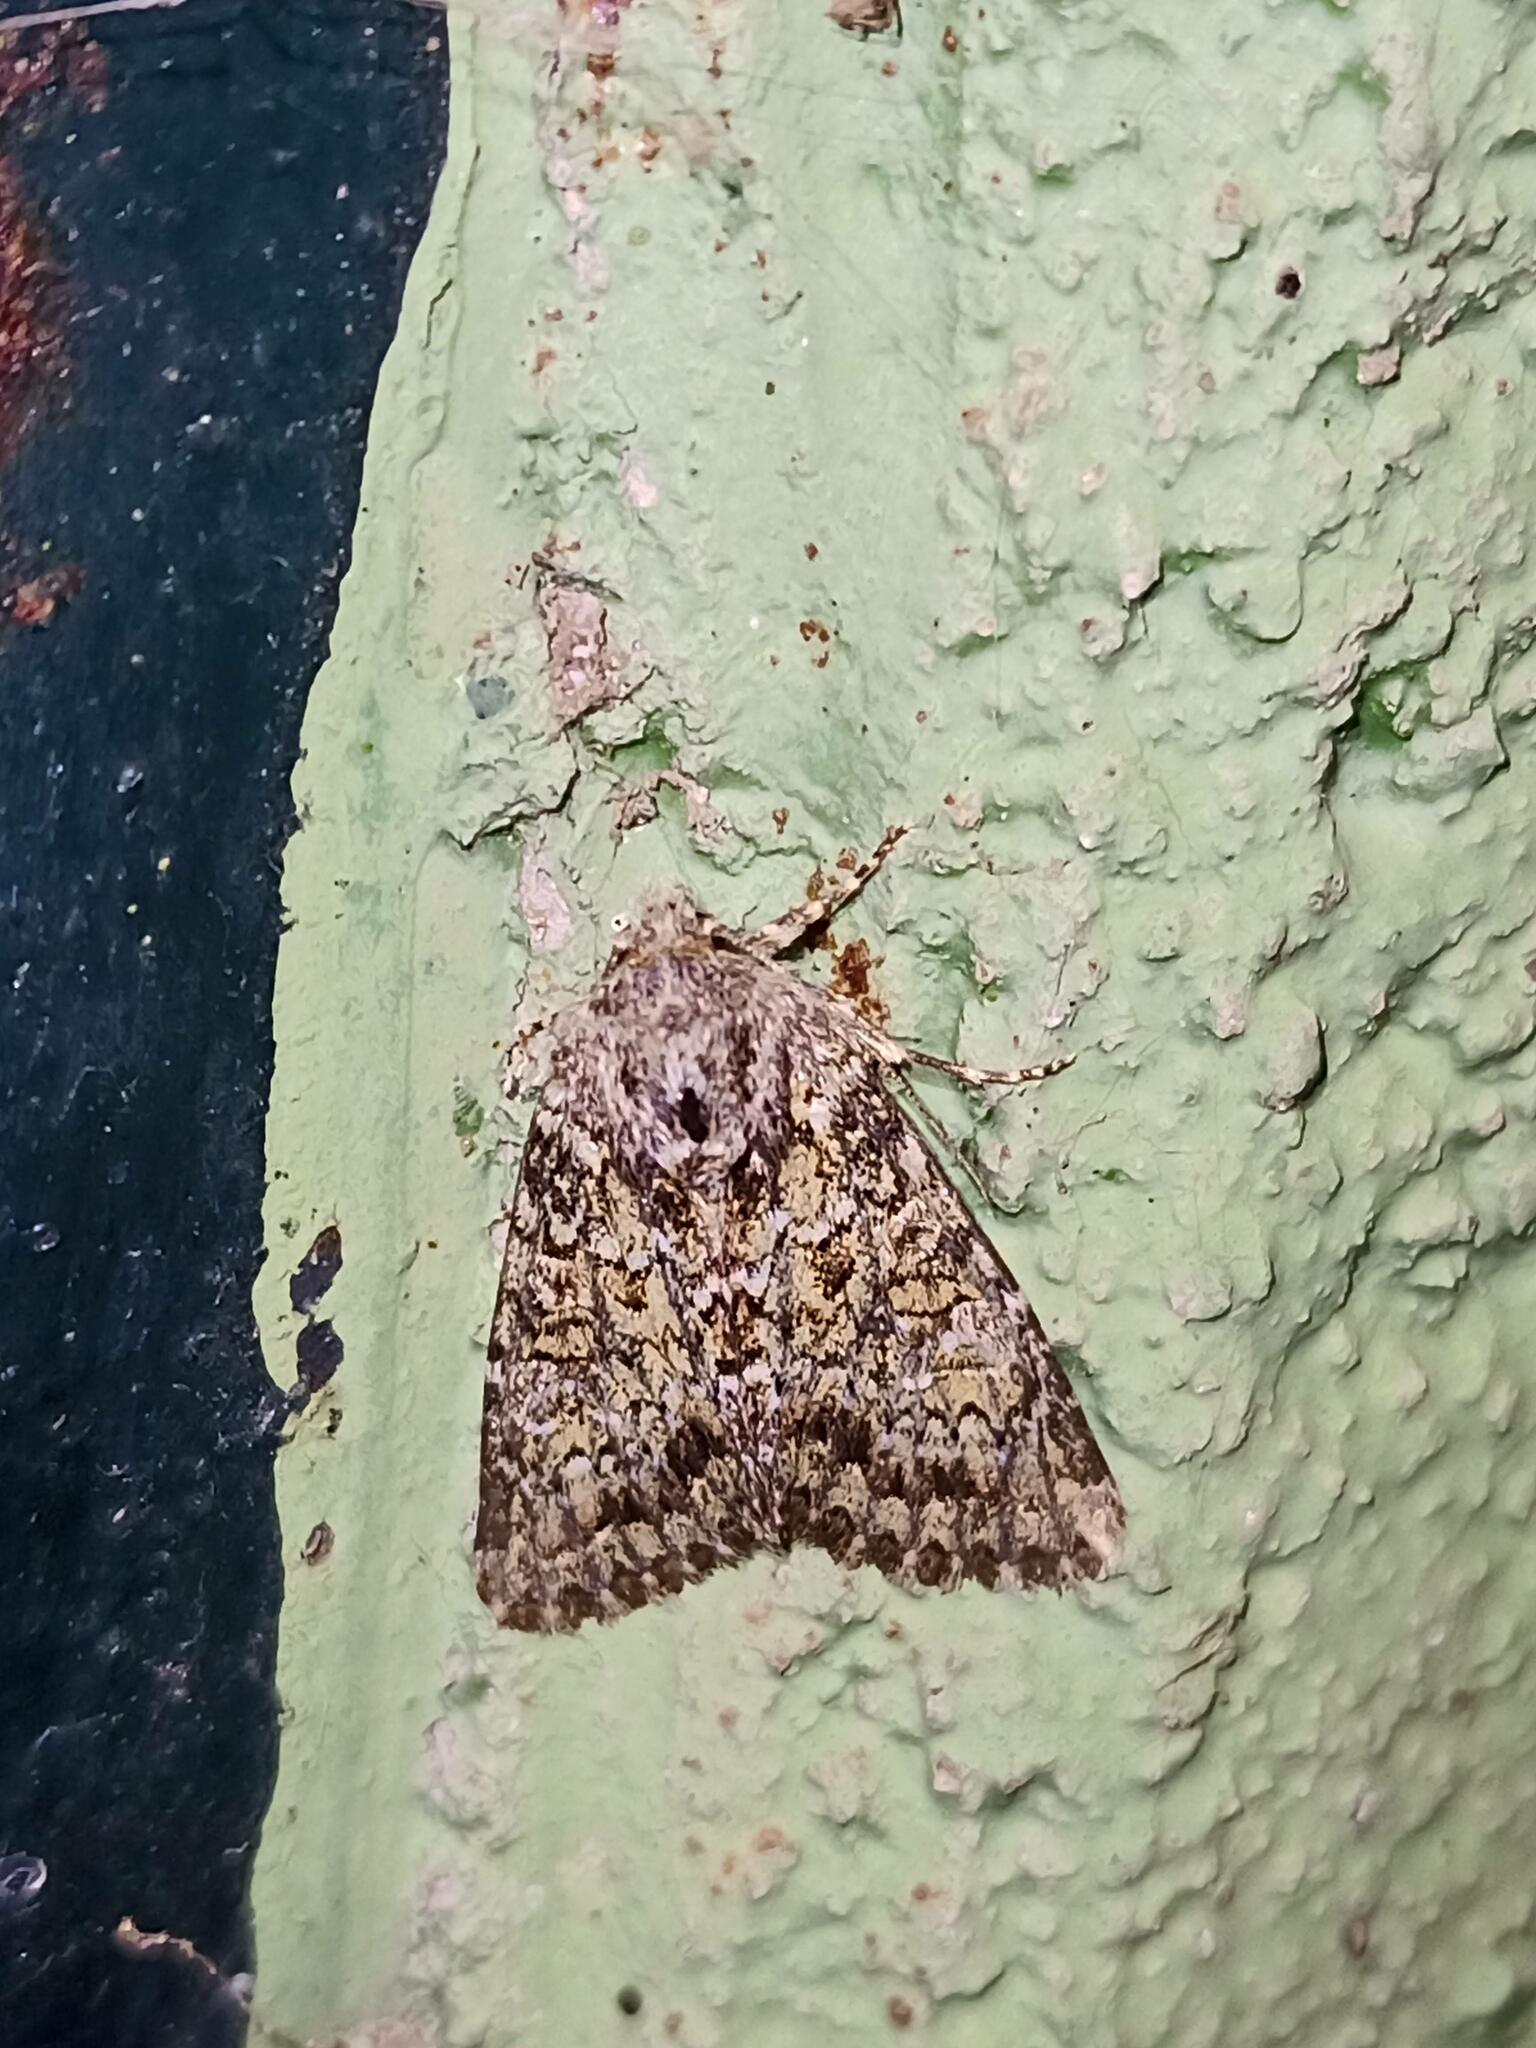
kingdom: Animalia
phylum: Arthropoda
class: Insecta
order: Lepidoptera
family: Noctuidae
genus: Polymixis
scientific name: Polymixis lichenea
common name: Feathered ranunculus
